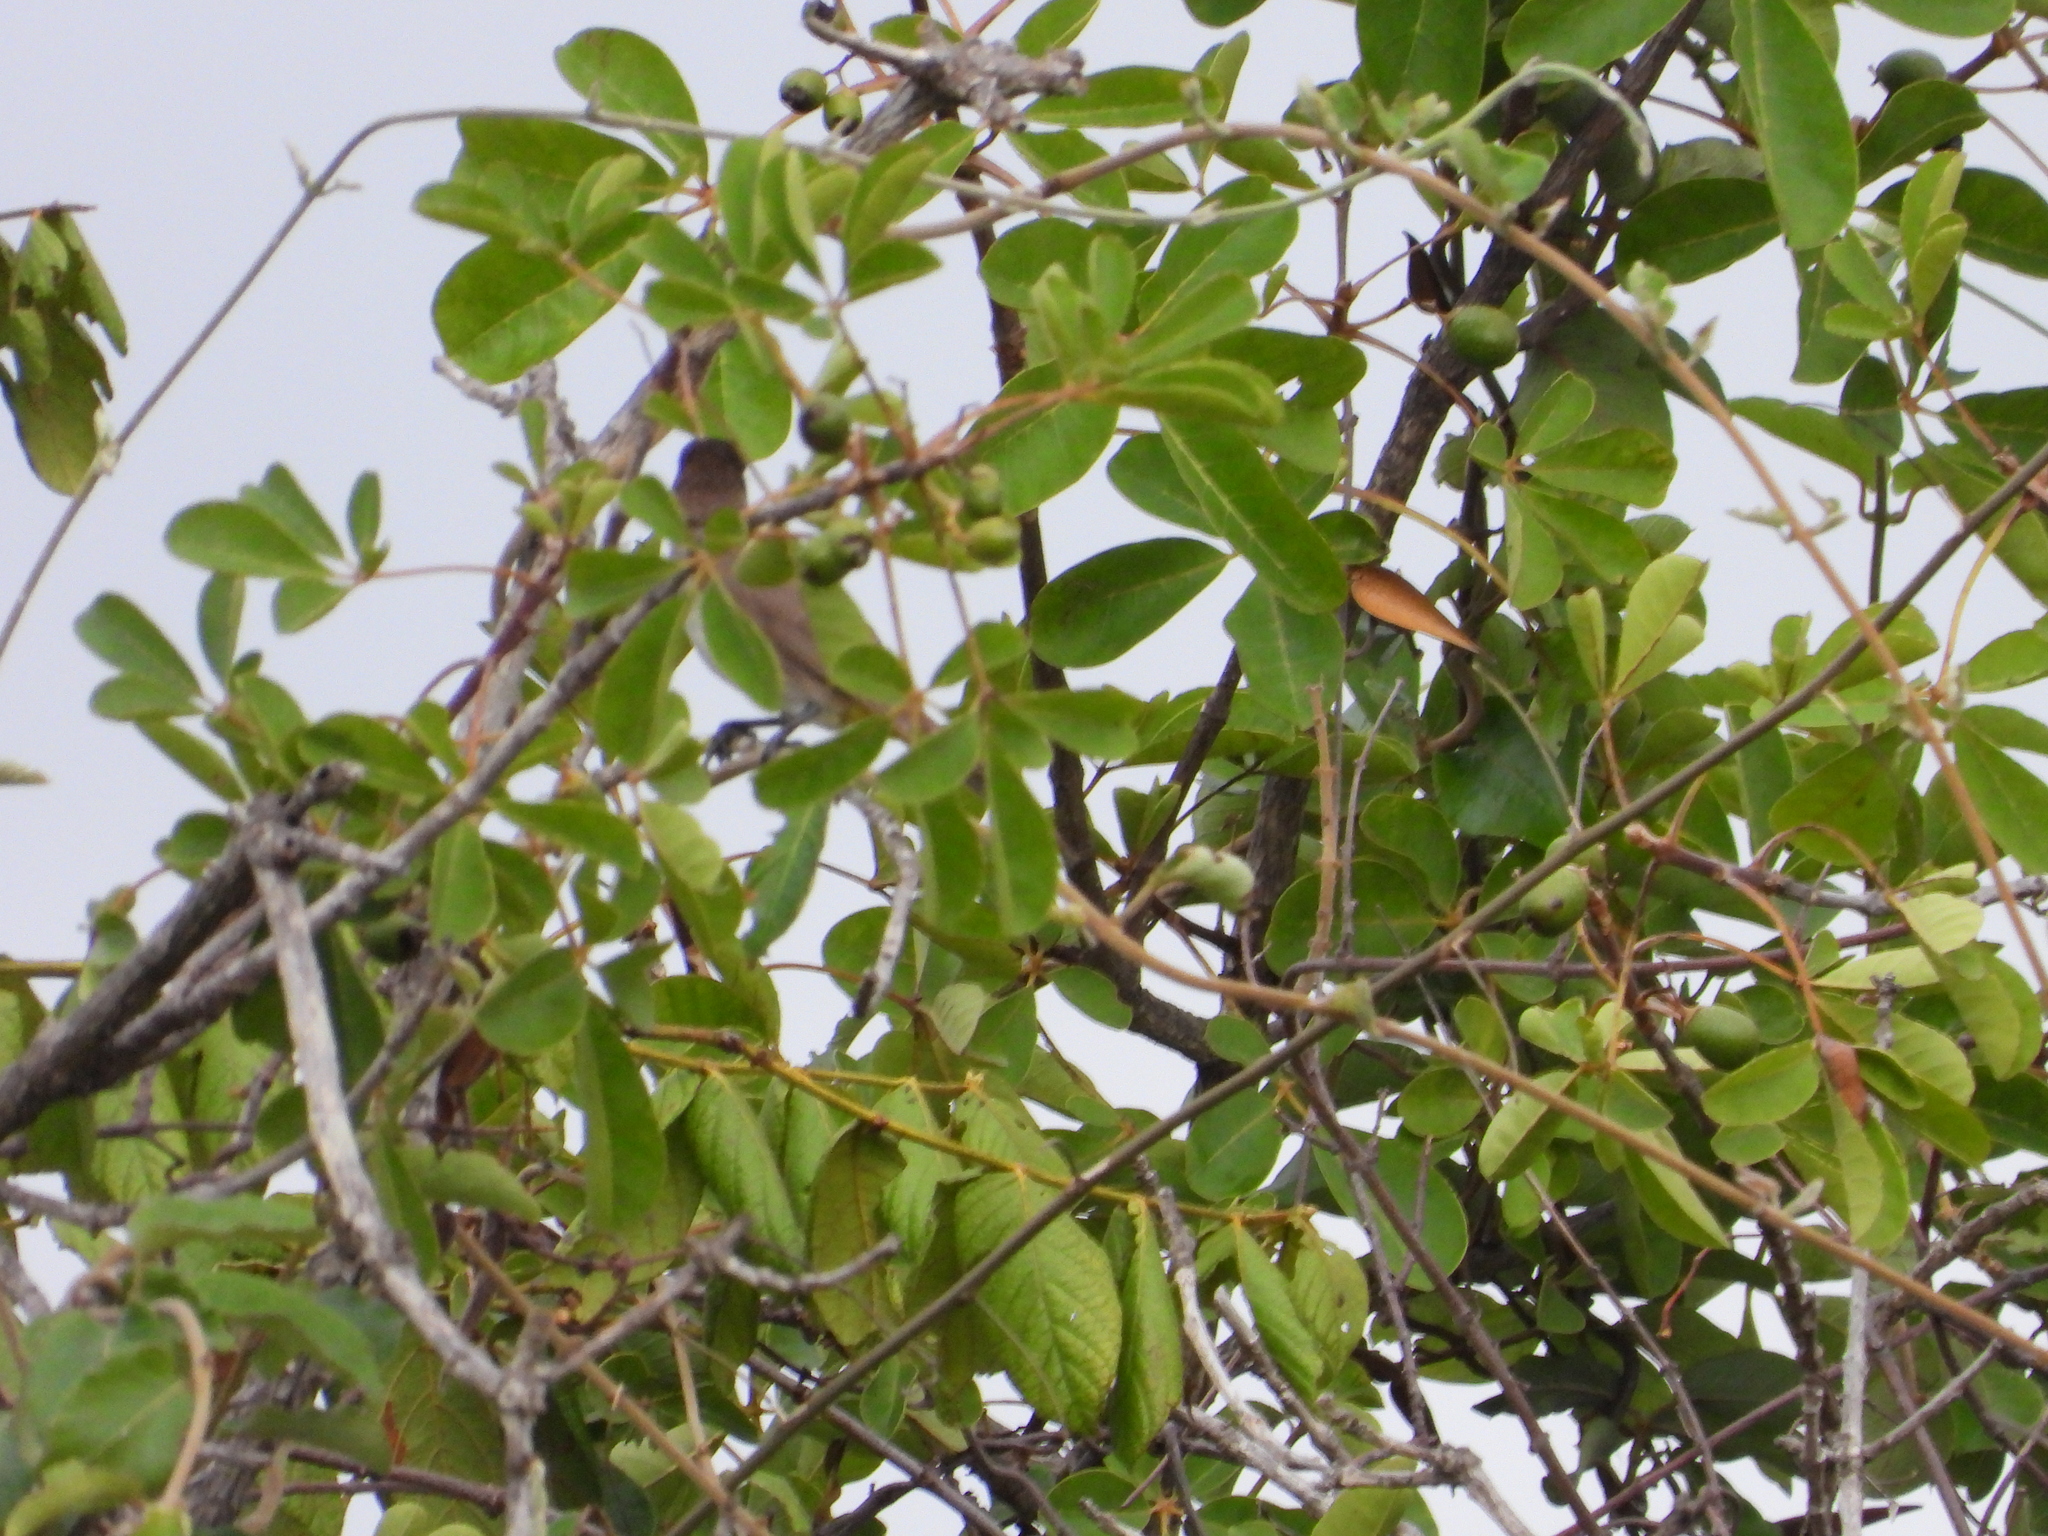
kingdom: Animalia
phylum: Chordata
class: Aves
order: Passeriformes
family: Pycnonotidae
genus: Pycnonotus
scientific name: Pycnonotus barbatus
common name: Common bulbul
